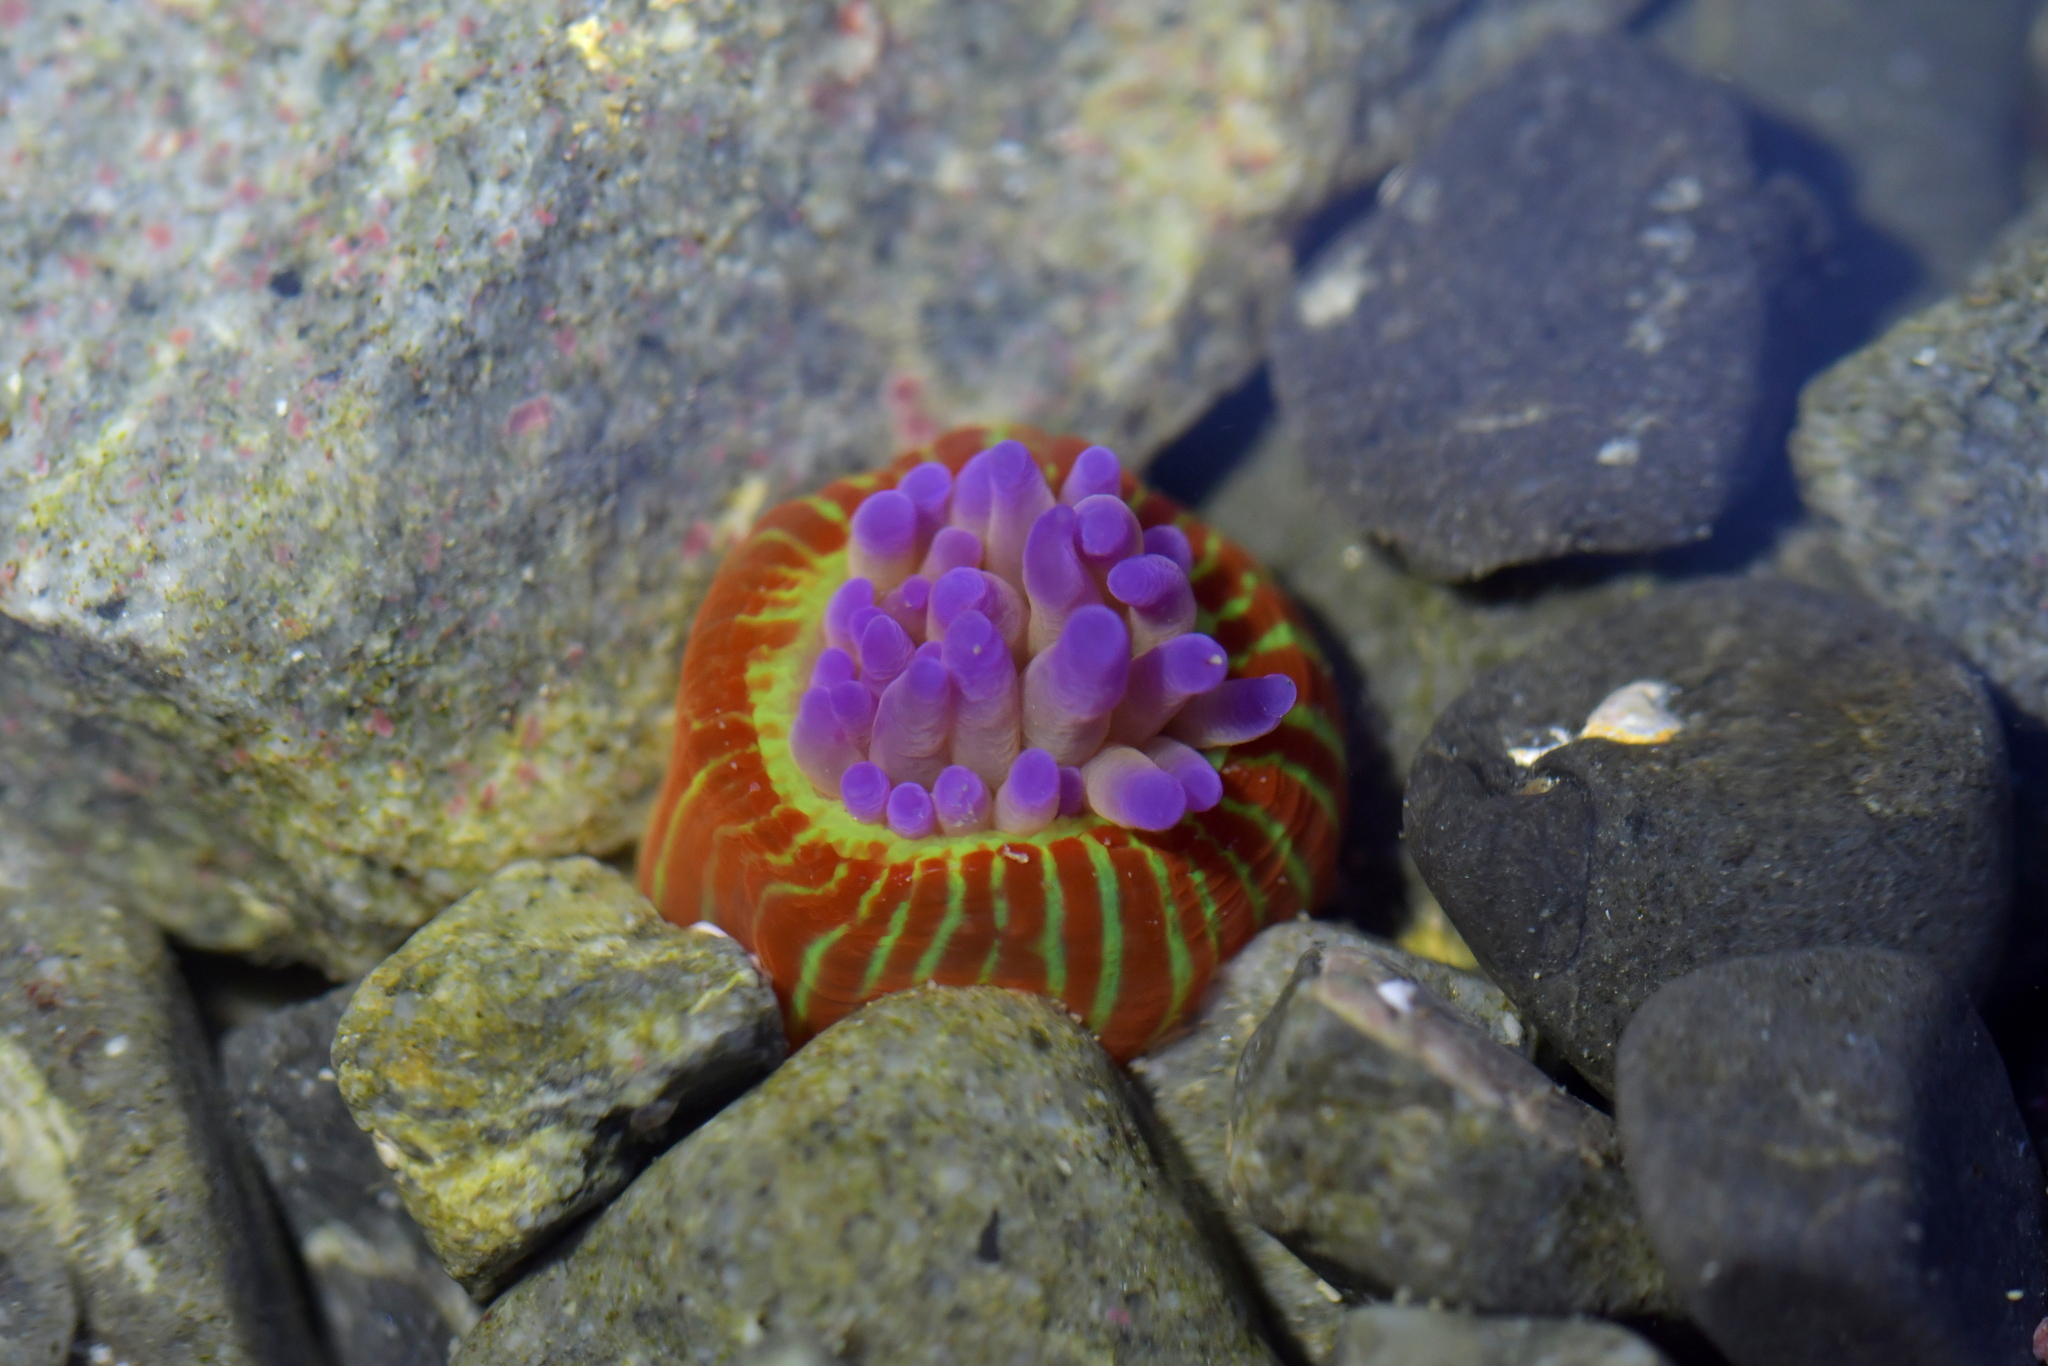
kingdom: Animalia
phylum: Cnidaria
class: Anthozoa
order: Actiniaria
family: Actiniidae
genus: Epiactis
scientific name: Epiactis thompsoni
